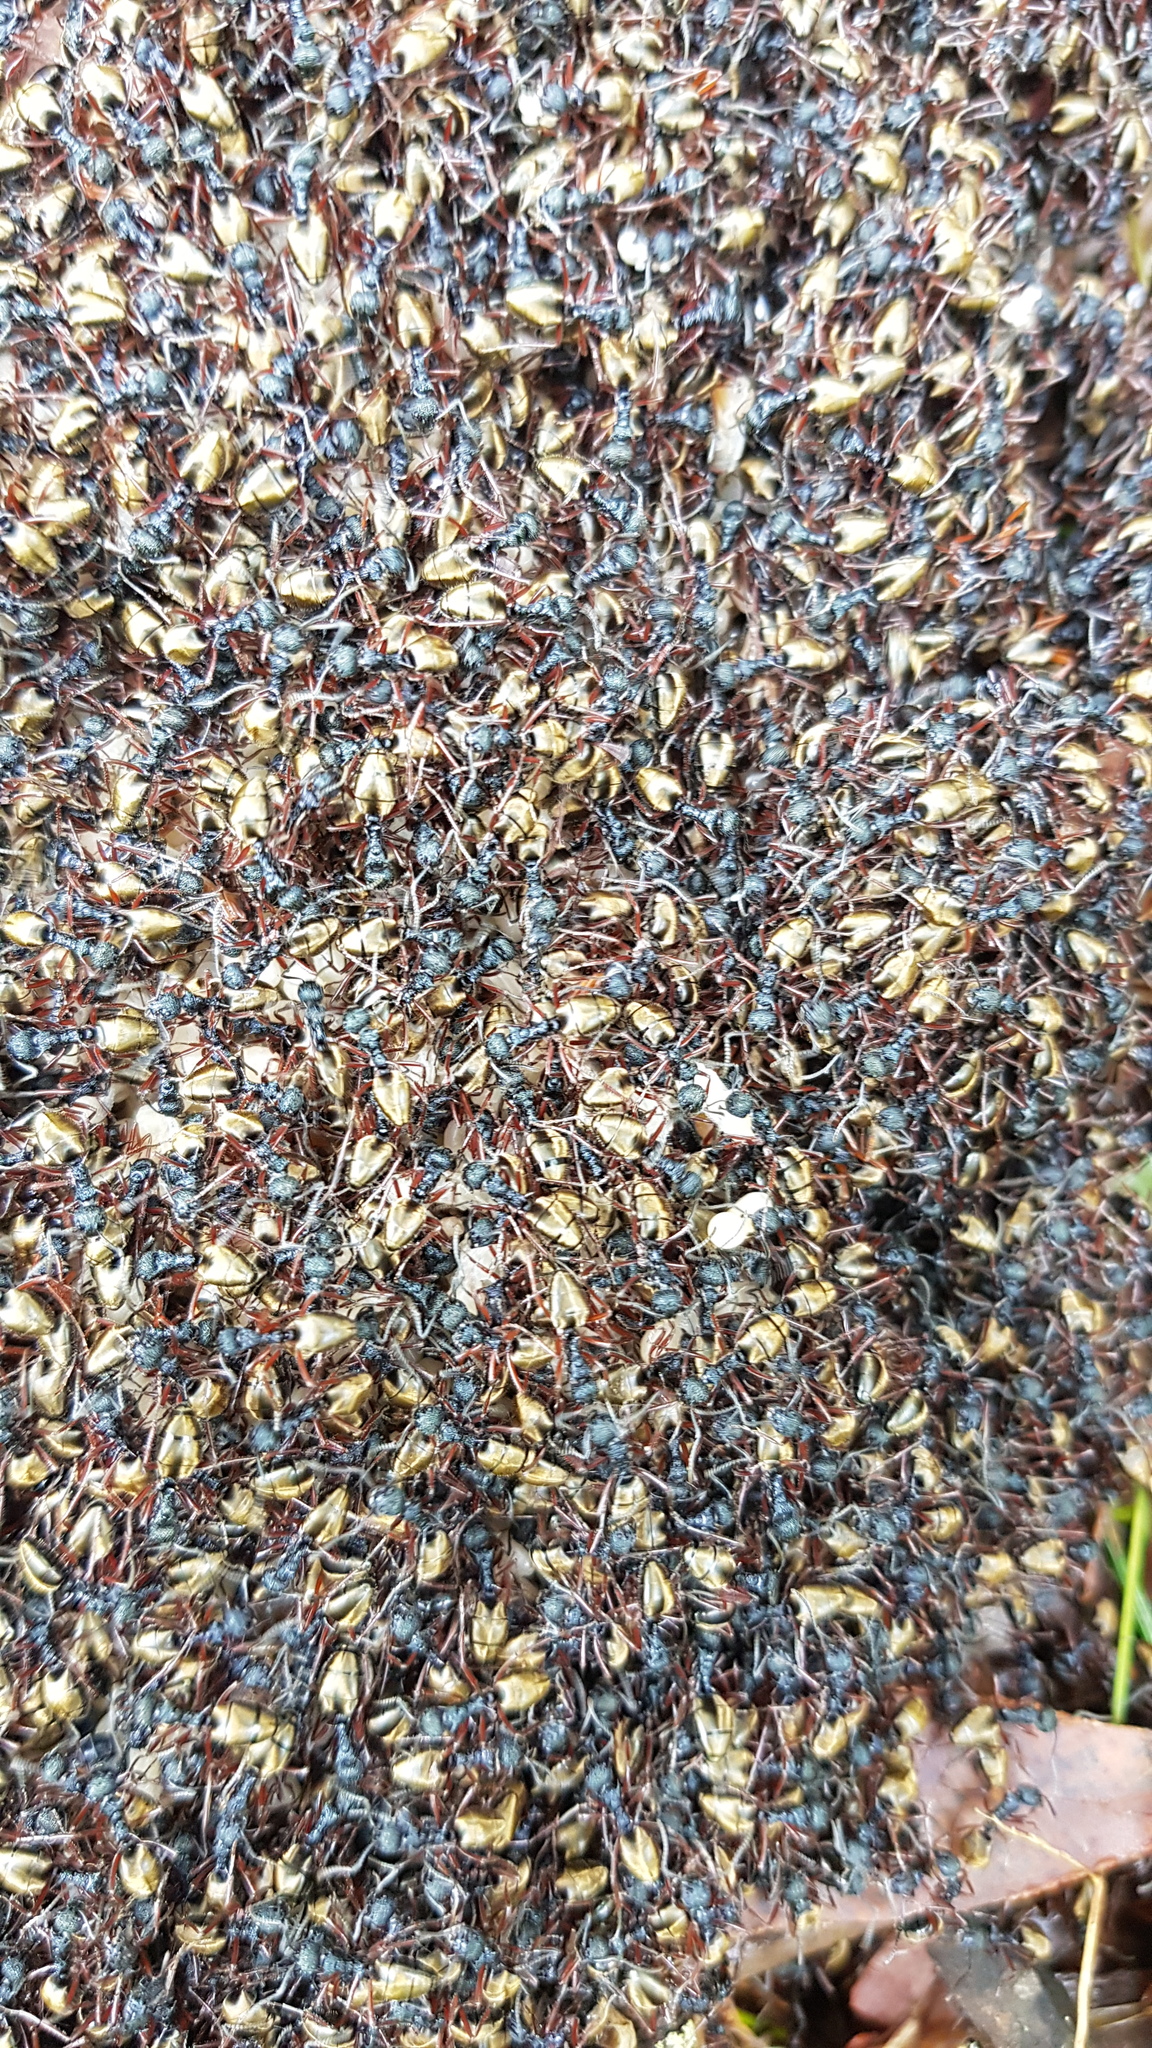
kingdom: Animalia
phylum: Arthropoda
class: Insecta
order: Hymenoptera
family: Formicidae
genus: Dolichoderus
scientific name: Dolichoderus doriae
